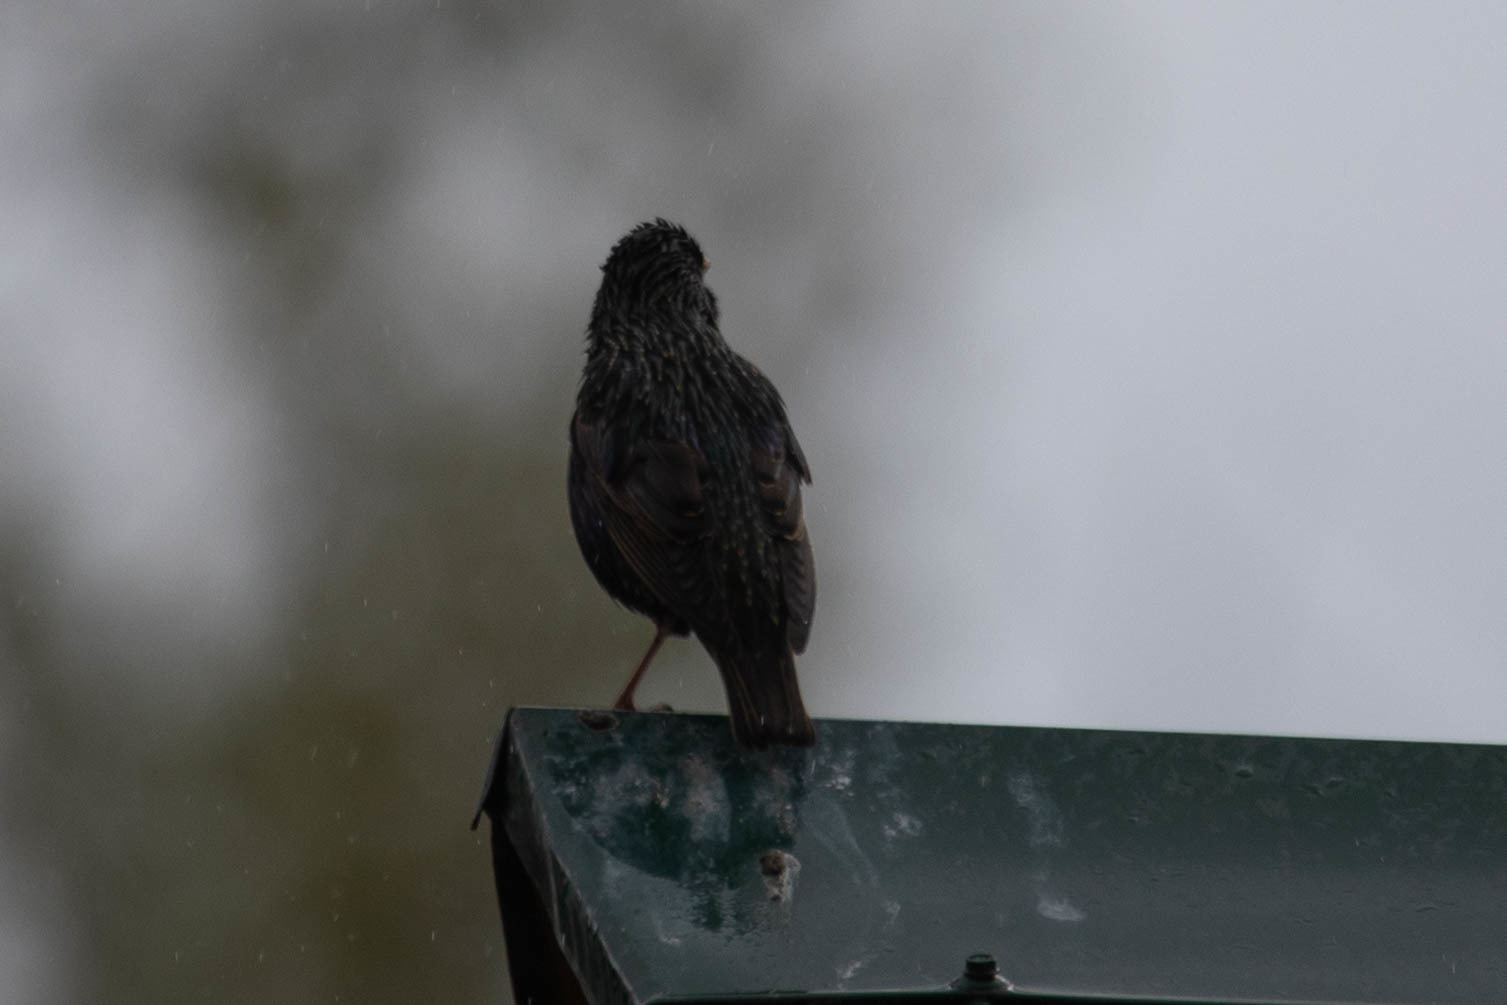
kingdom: Animalia
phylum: Chordata
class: Aves
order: Passeriformes
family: Sturnidae
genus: Sturnus
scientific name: Sturnus vulgaris
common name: Common starling
